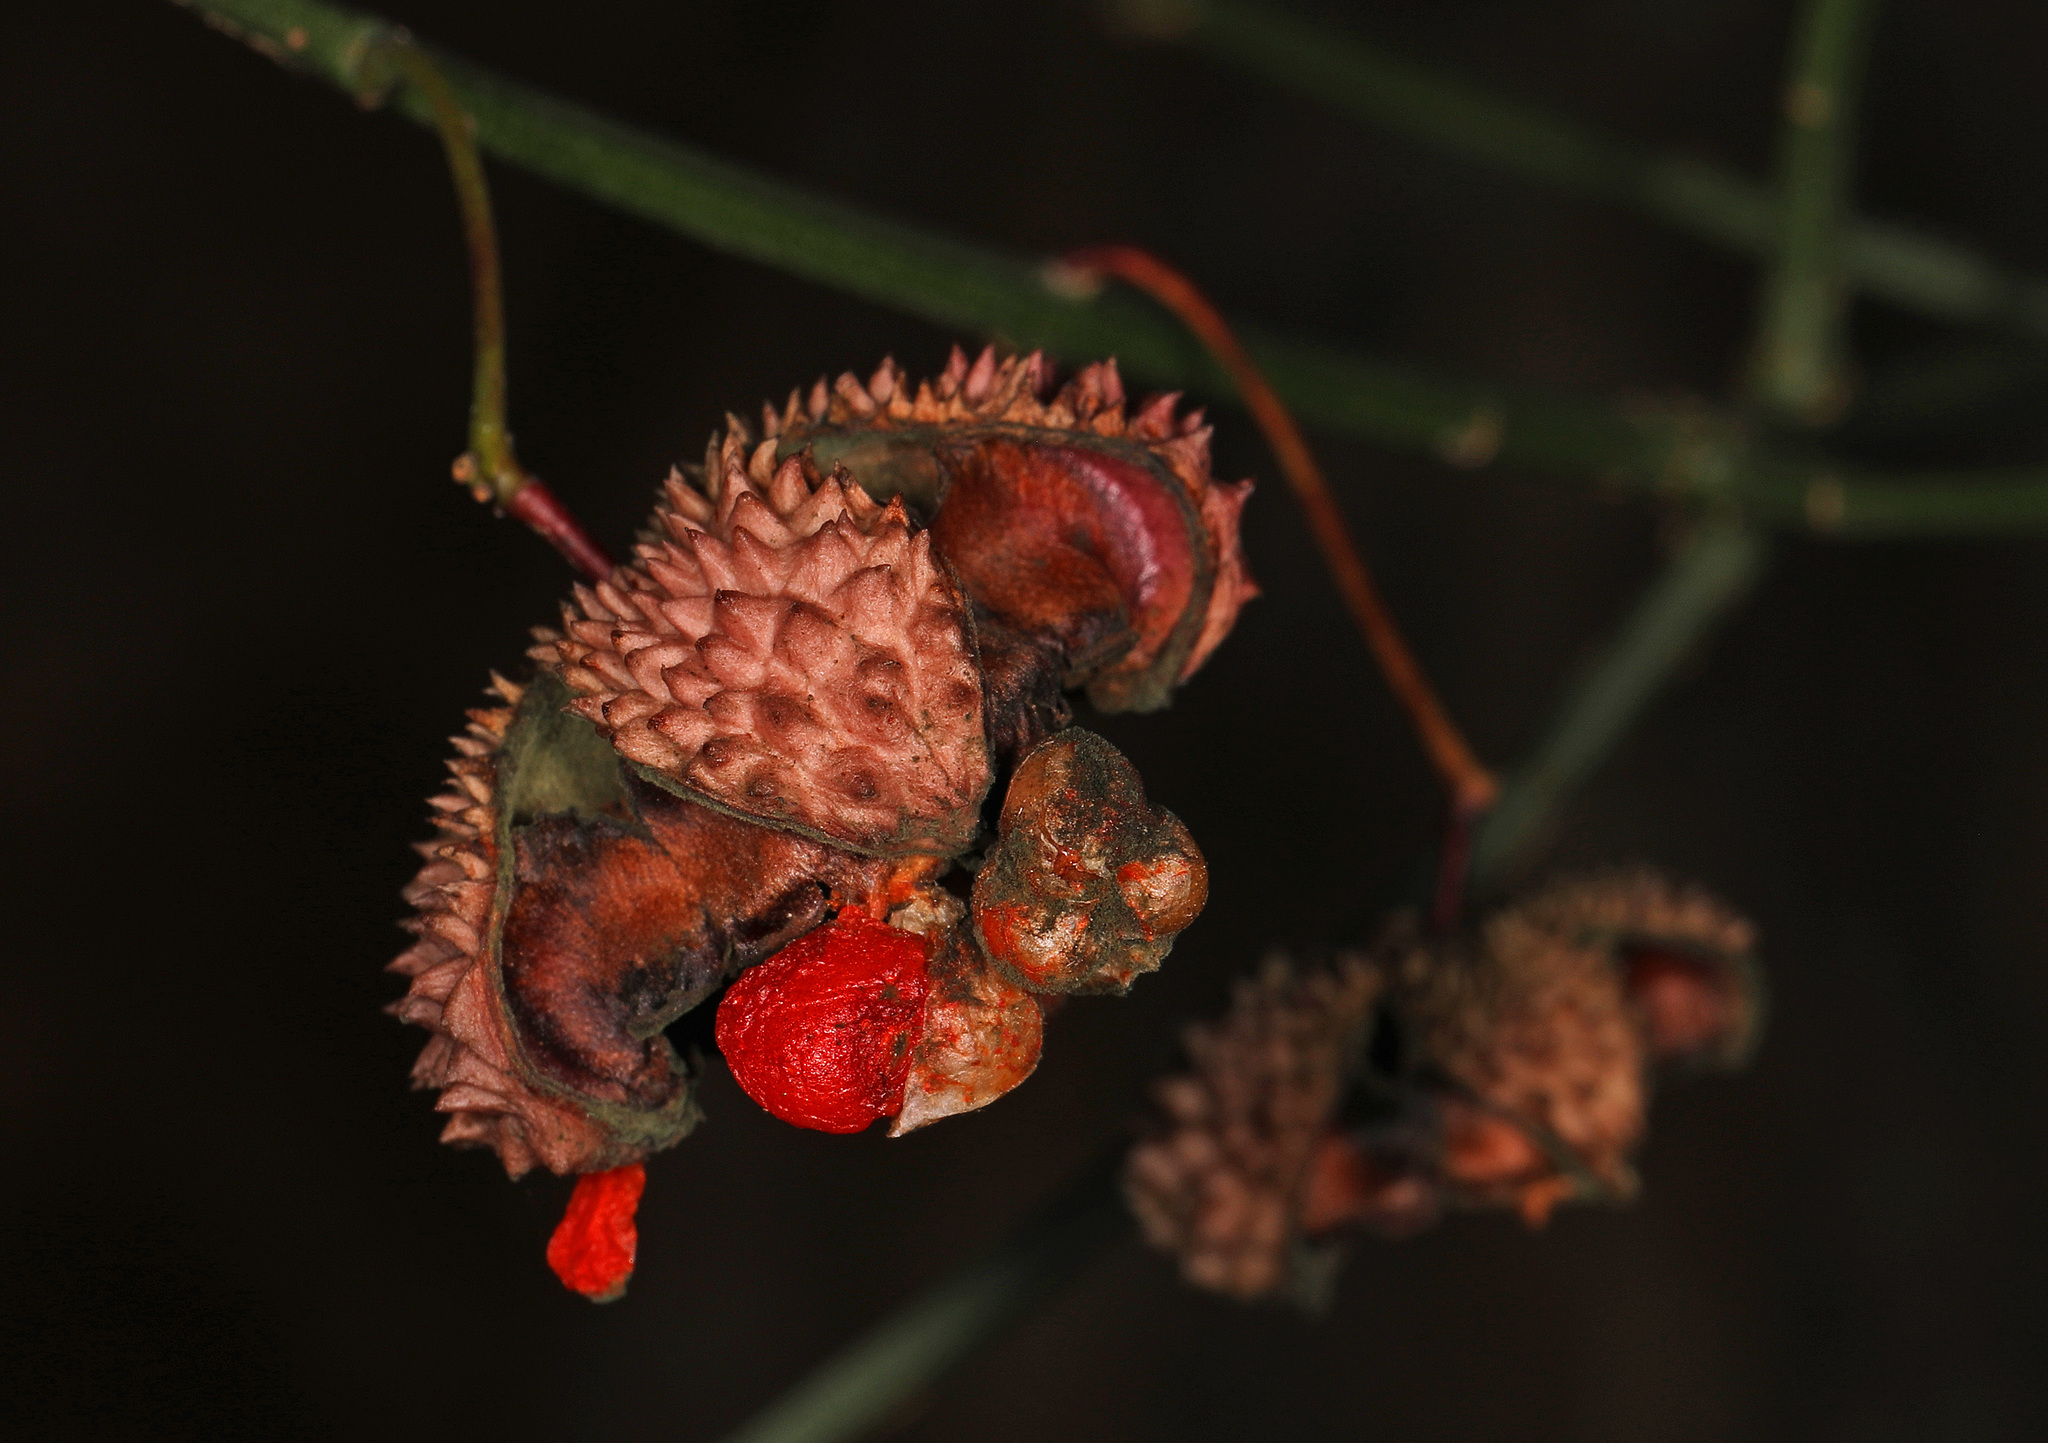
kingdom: Plantae
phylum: Tracheophyta
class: Magnoliopsida
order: Celastrales
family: Celastraceae
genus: Euonymus
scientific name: Euonymus americanus
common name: Bursting-heart
